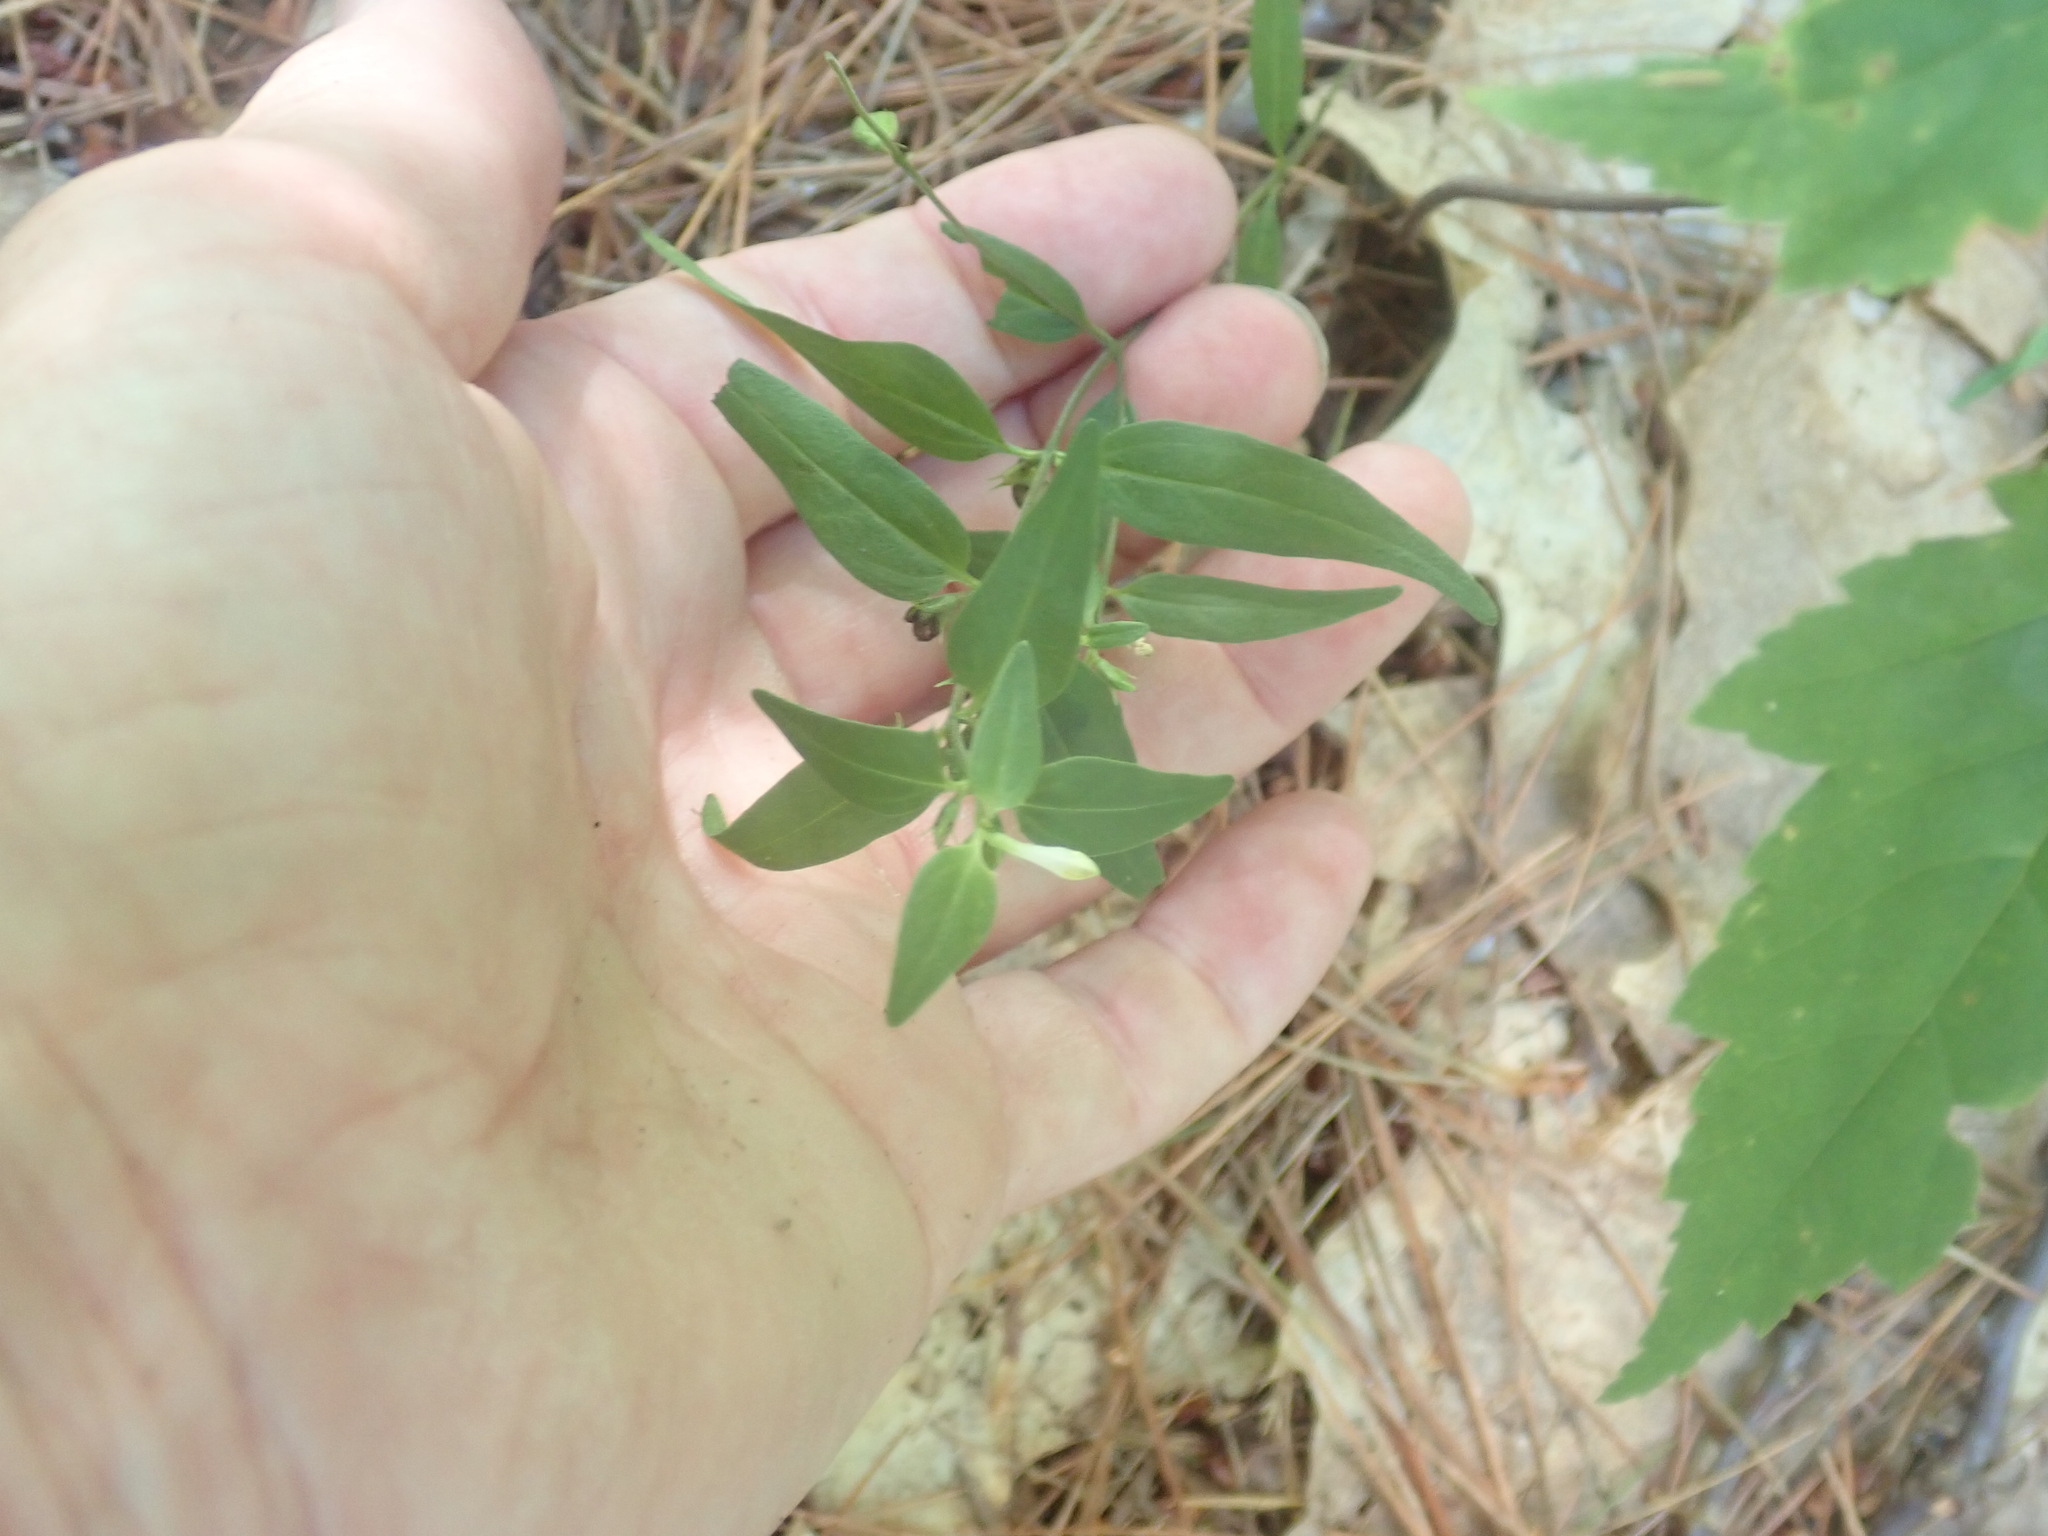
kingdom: Plantae
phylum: Tracheophyta
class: Magnoliopsida
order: Lamiales
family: Orobanchaceae
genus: Melampyrum
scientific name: Melampyrum lineare
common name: American cow-wheat
